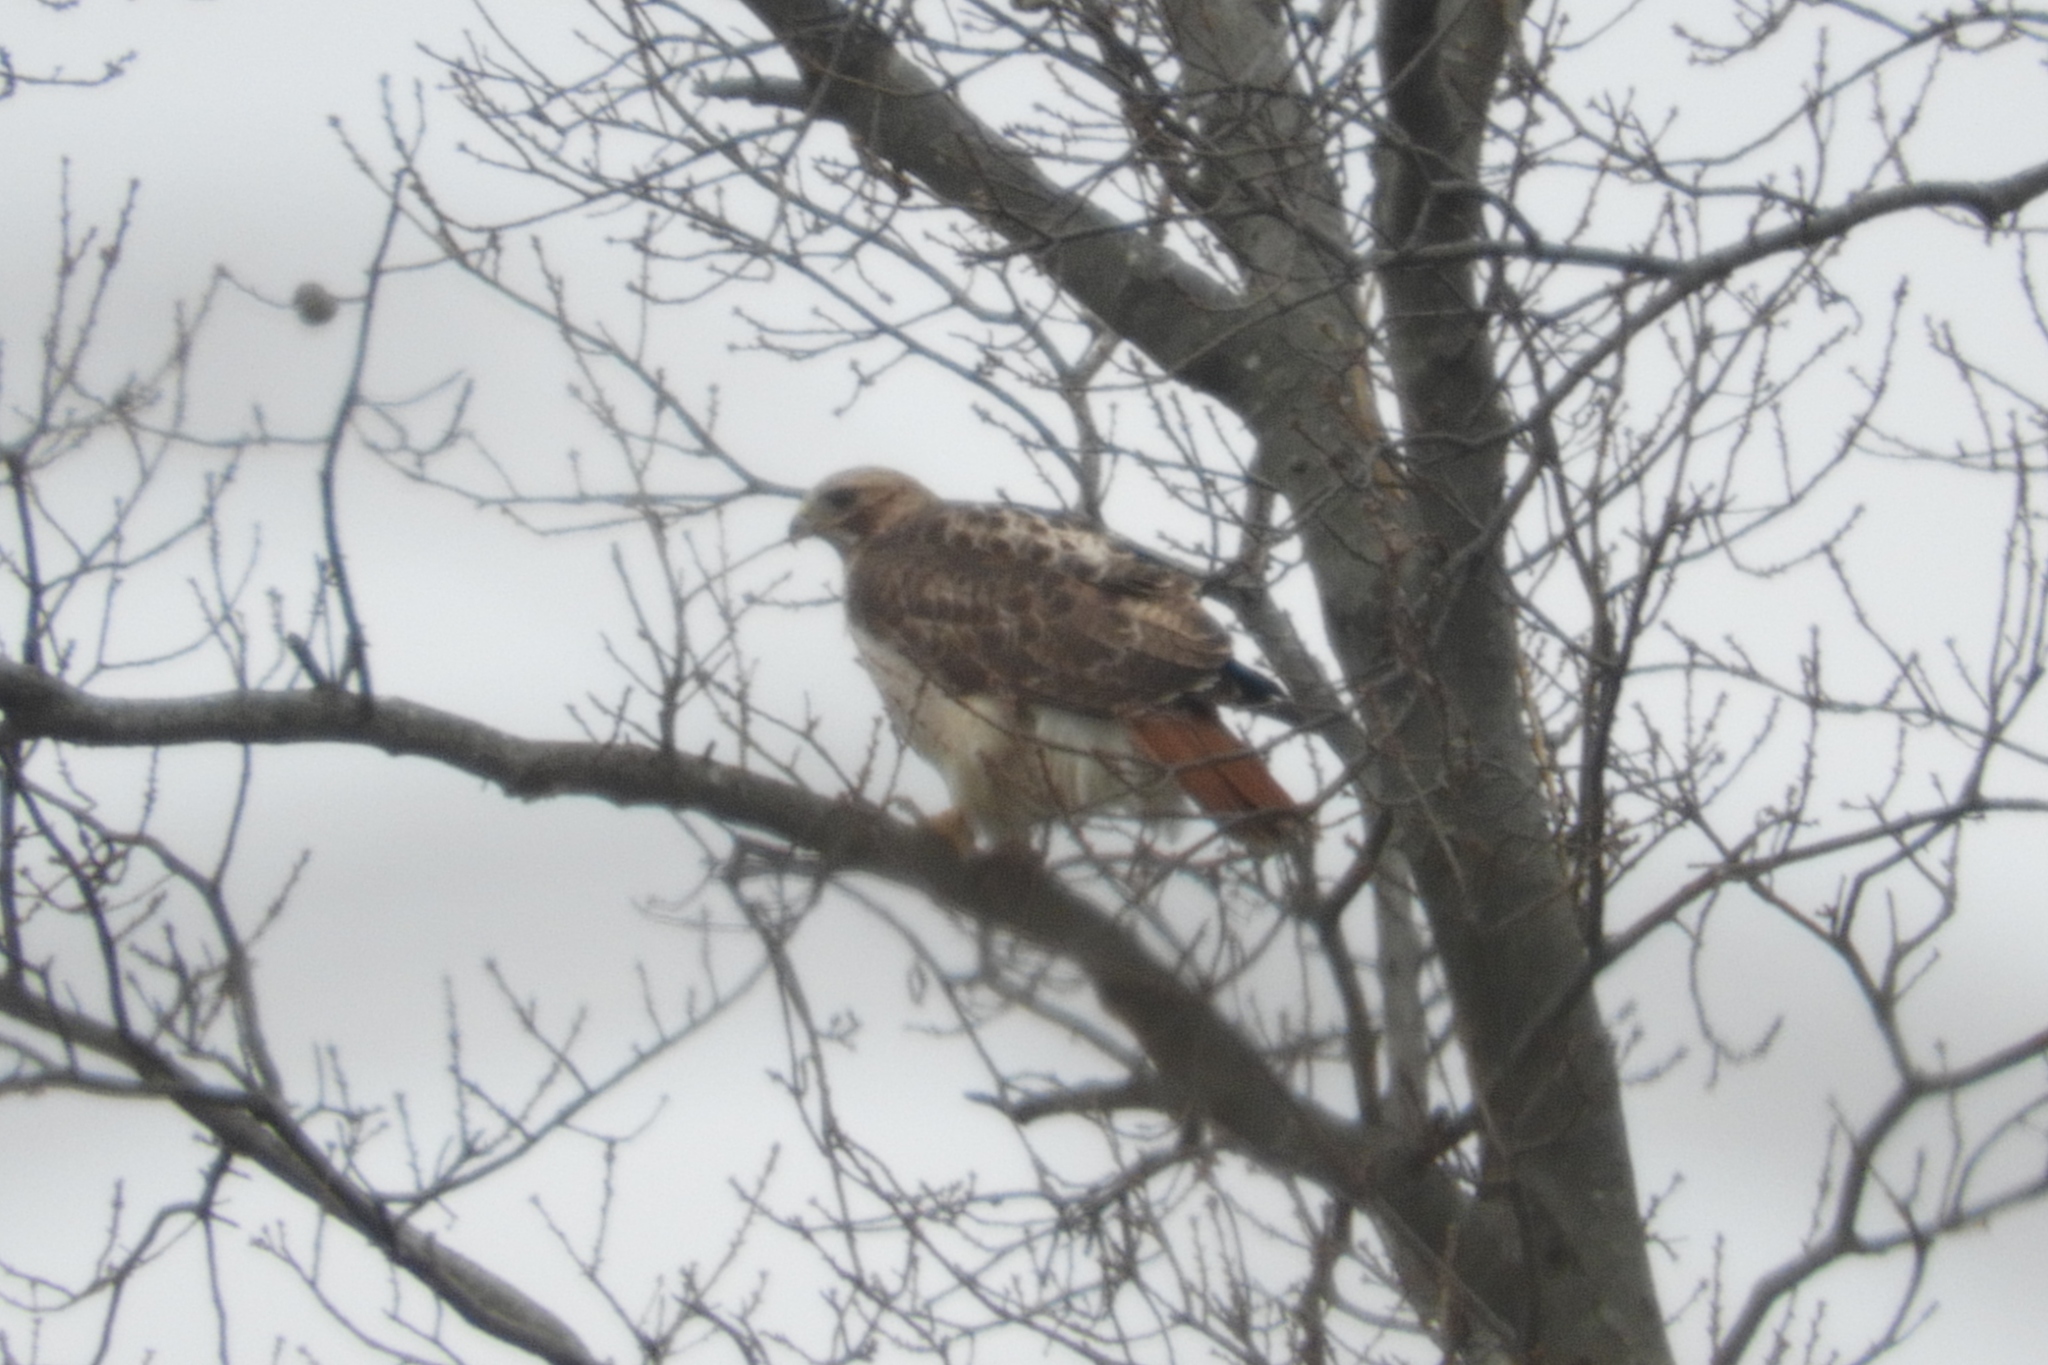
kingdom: Animalia
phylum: Chordata
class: Aves
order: Accipitriformes
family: Accipitridae
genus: Buteo
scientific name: Buteo jamaicensis
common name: Red-tailed hawk
